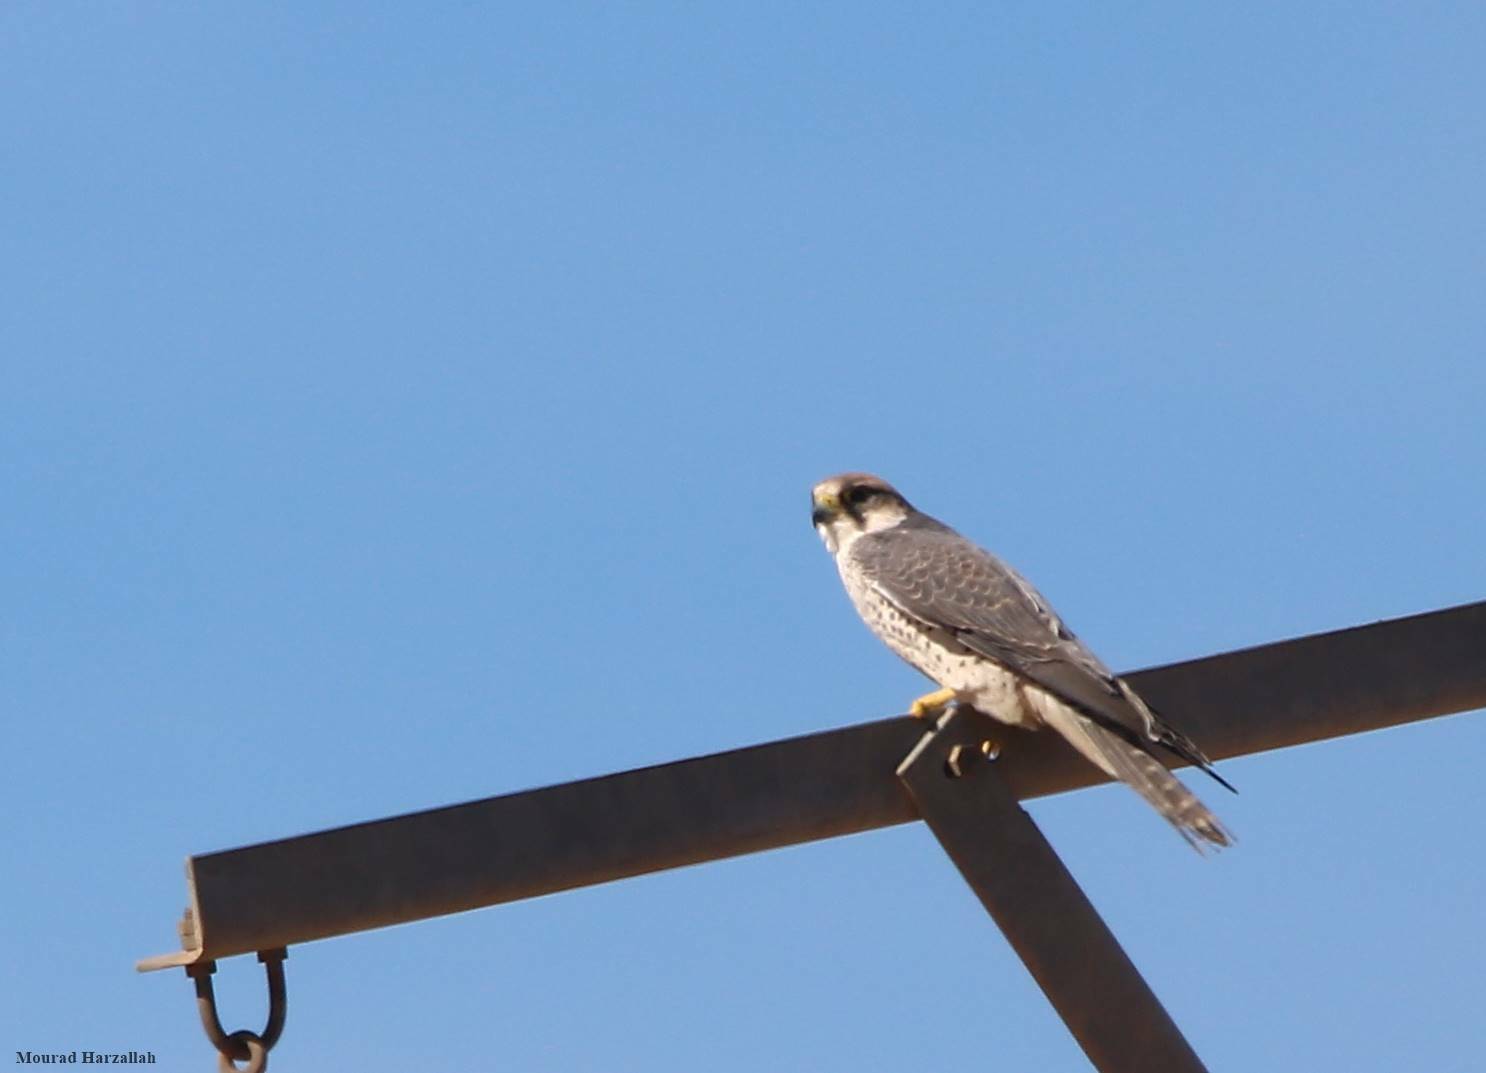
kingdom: Animalia
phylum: Chordata
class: Aves
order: Falconiformes
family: Falconidae
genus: Falco
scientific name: Falco biarmicus
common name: Lanner falcon
